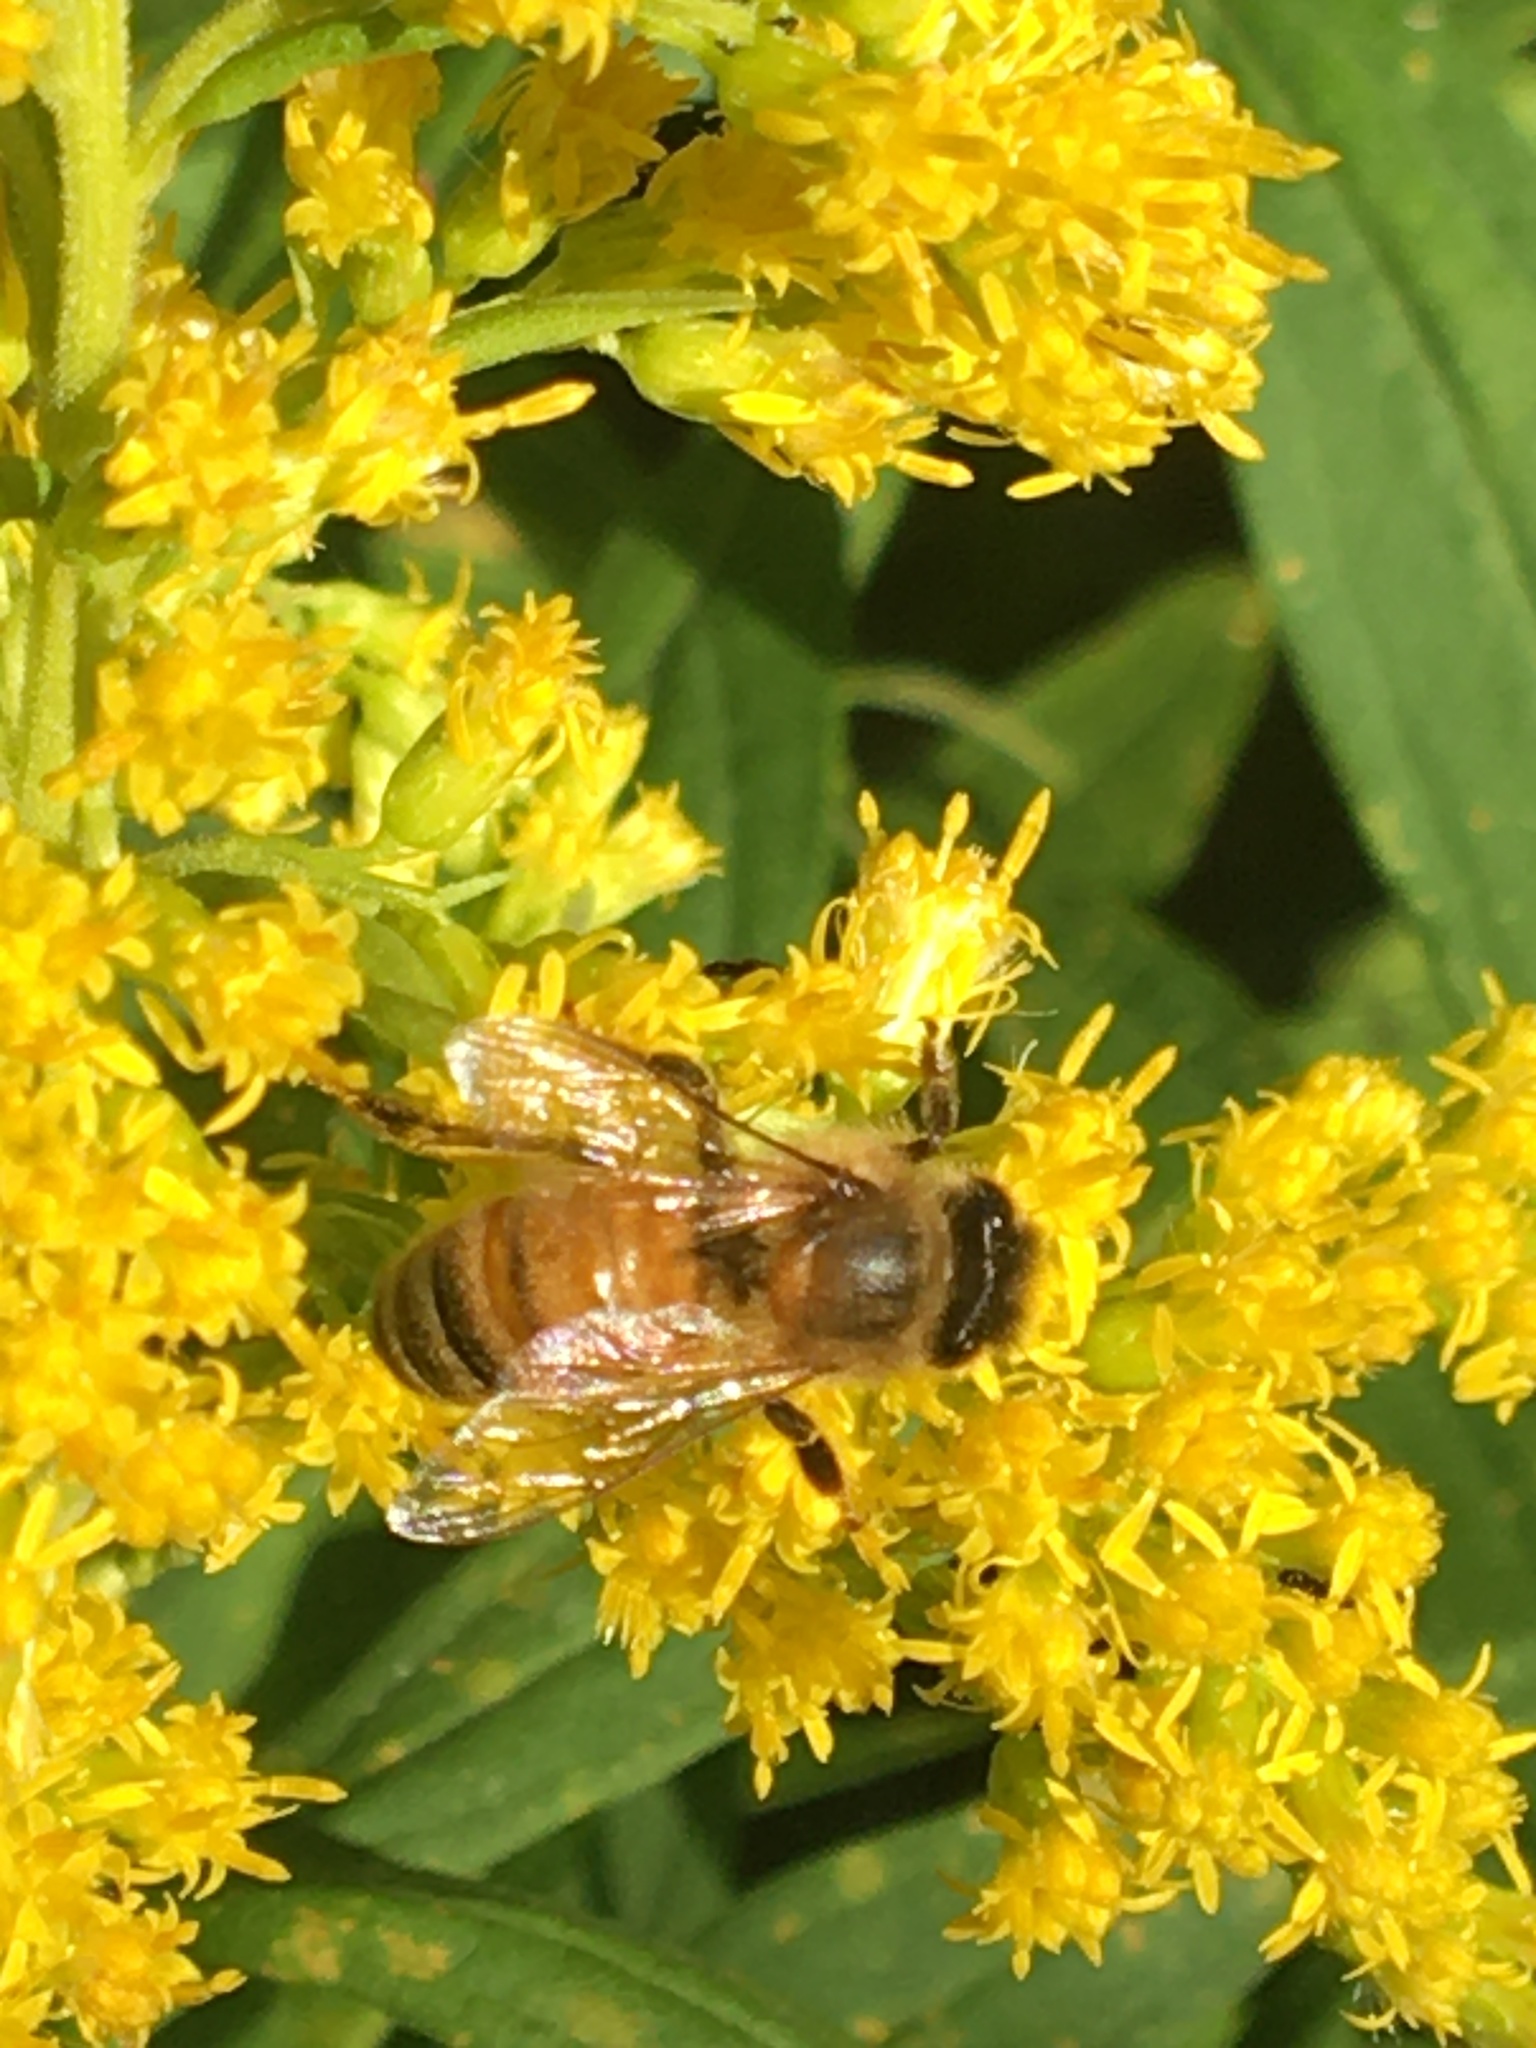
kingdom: Animalia
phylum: Arthropoda
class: Insecta
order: Hymenoptera
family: Apidae
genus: Apis
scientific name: Apis mellifera
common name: Honey bee
